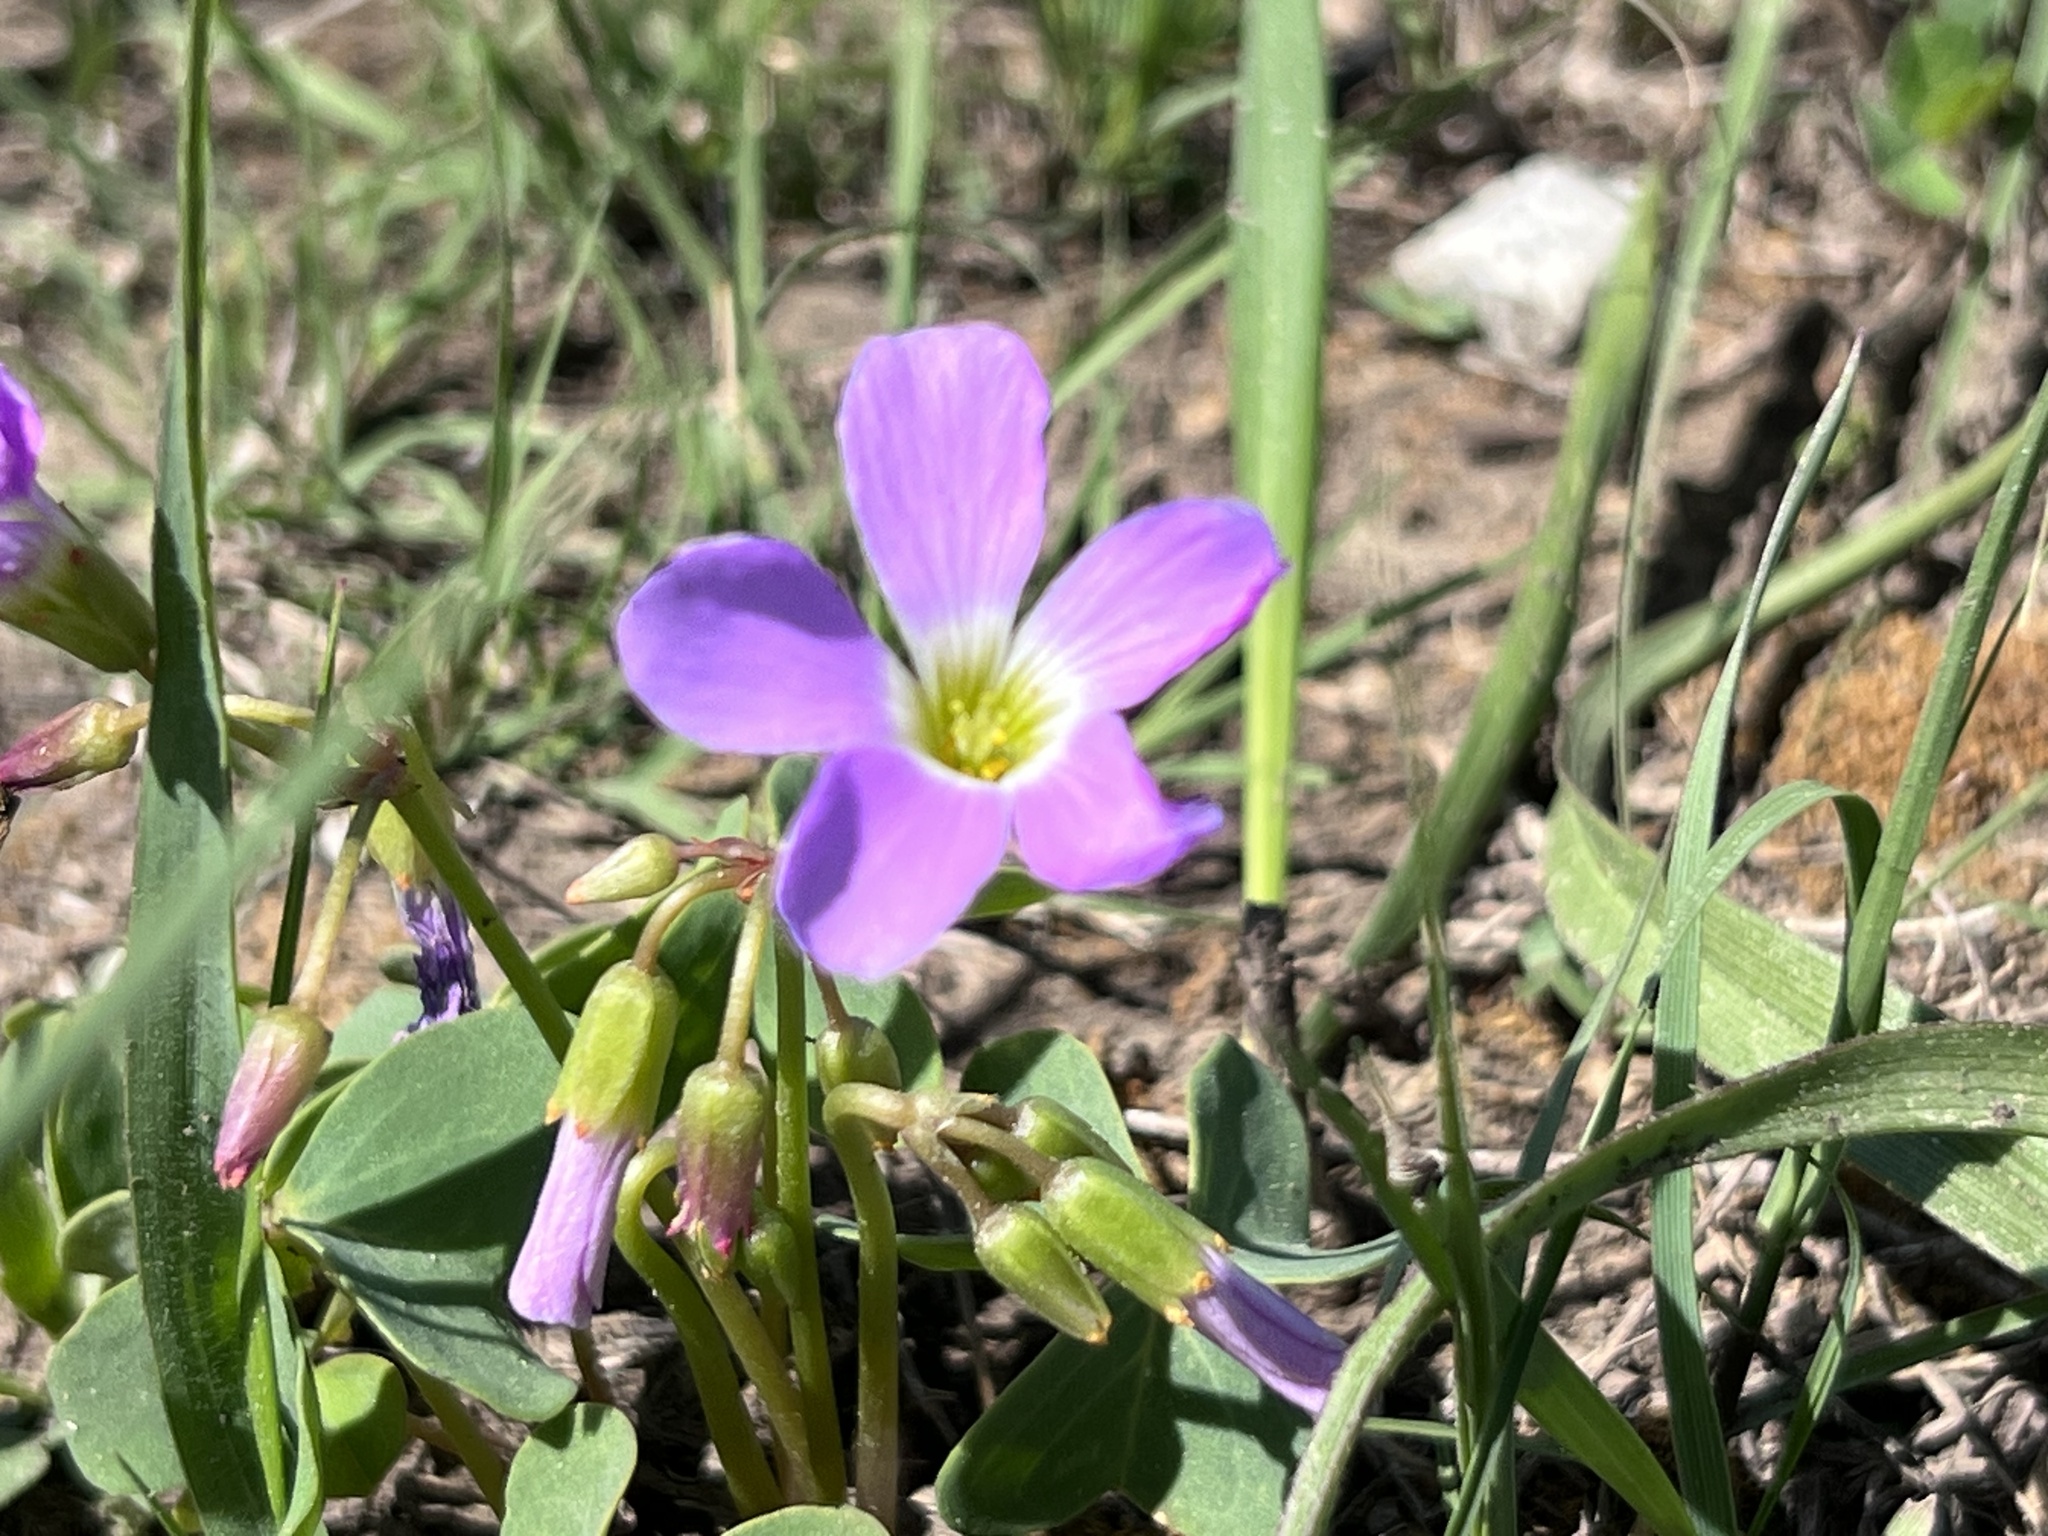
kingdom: Plantae
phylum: Tracheophyta
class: Magnoliopsida
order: Oxalidales
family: Oxalidaceae
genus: Oxalis
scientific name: Oxalis violacea
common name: Violet wood-sorrel
